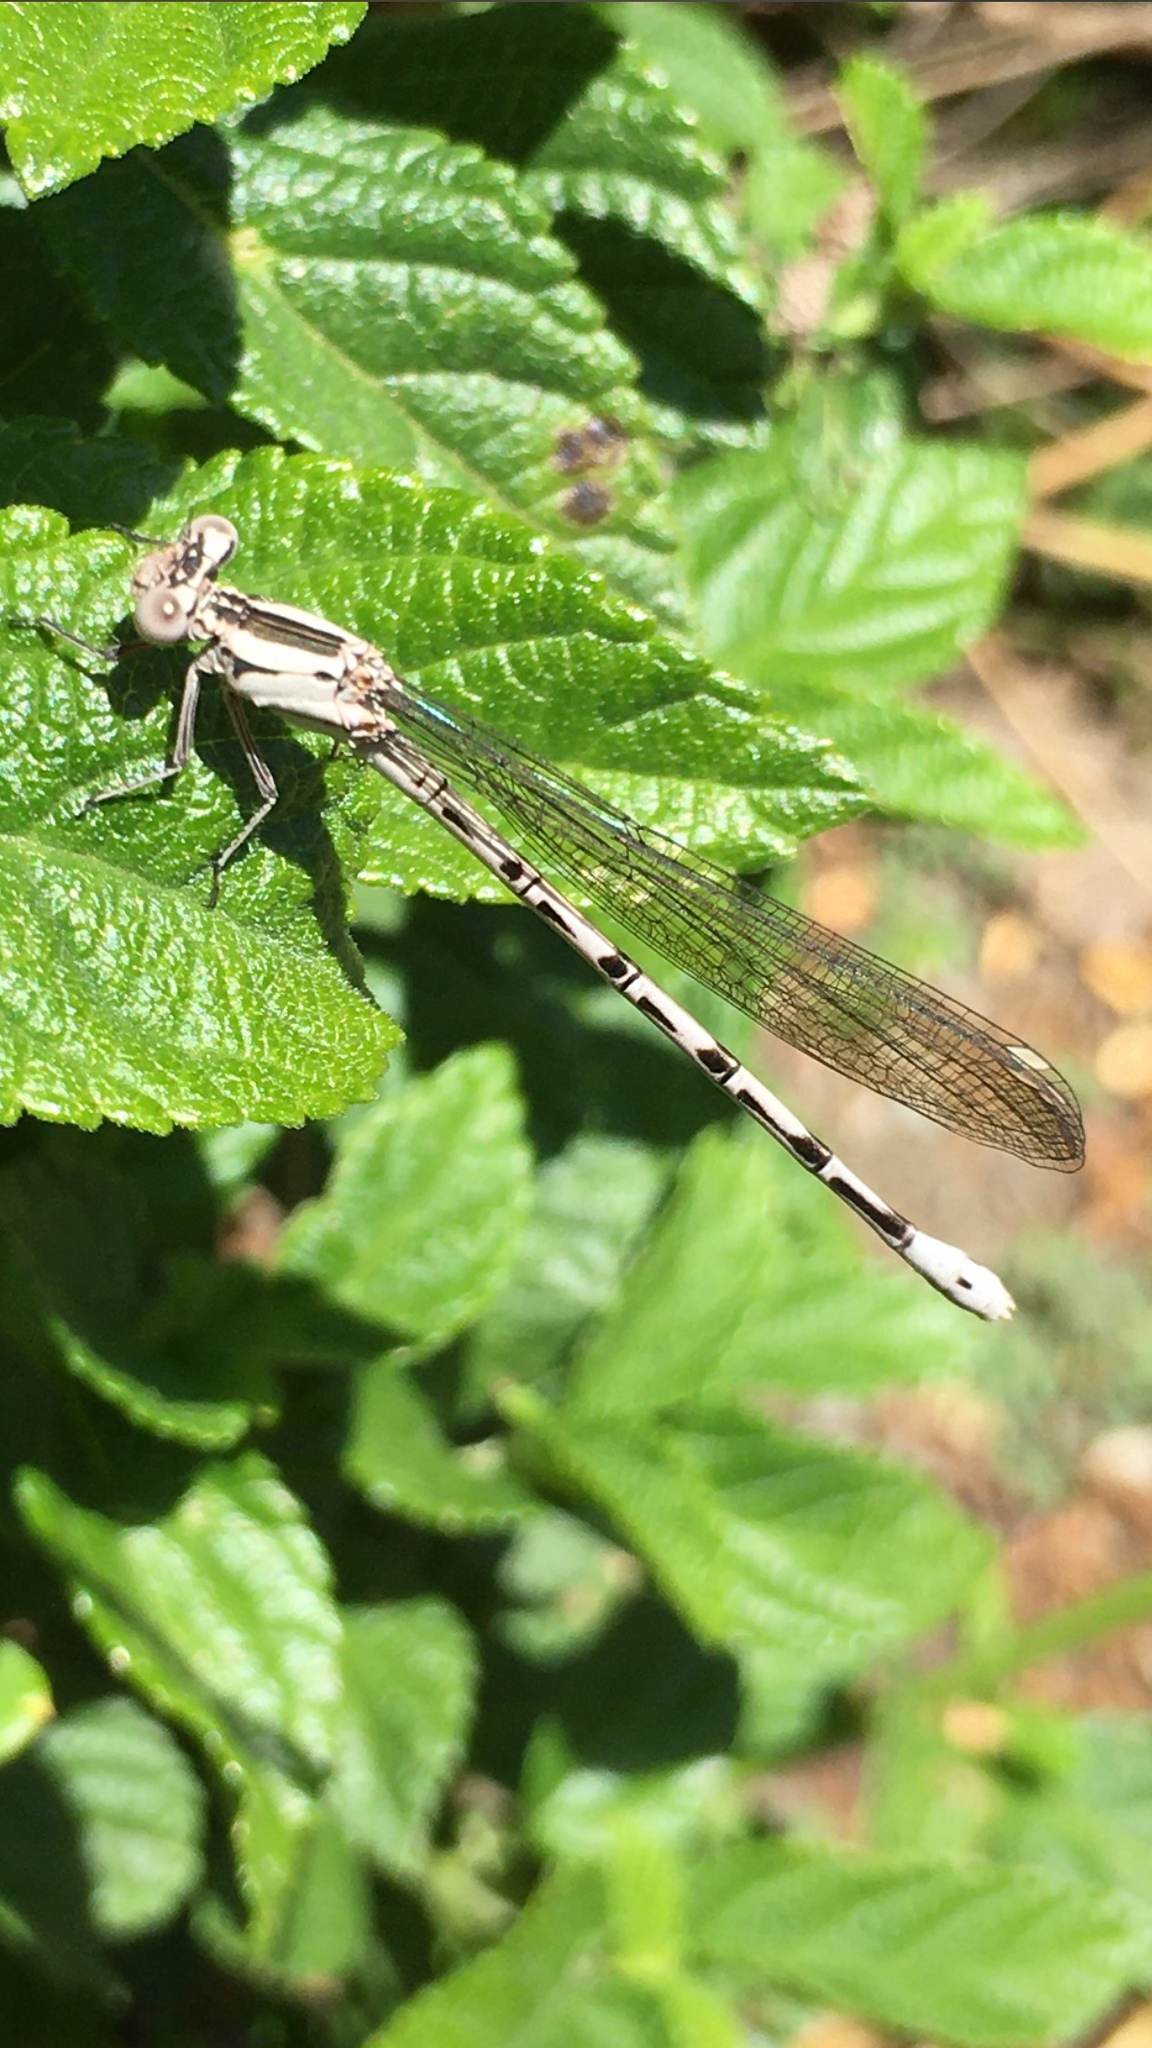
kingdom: Animalia
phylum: Arthropoda
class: Insecta
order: Odonata
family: Coenagrionidae
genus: Argia
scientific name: Argia vivida
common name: Vivid dancer
